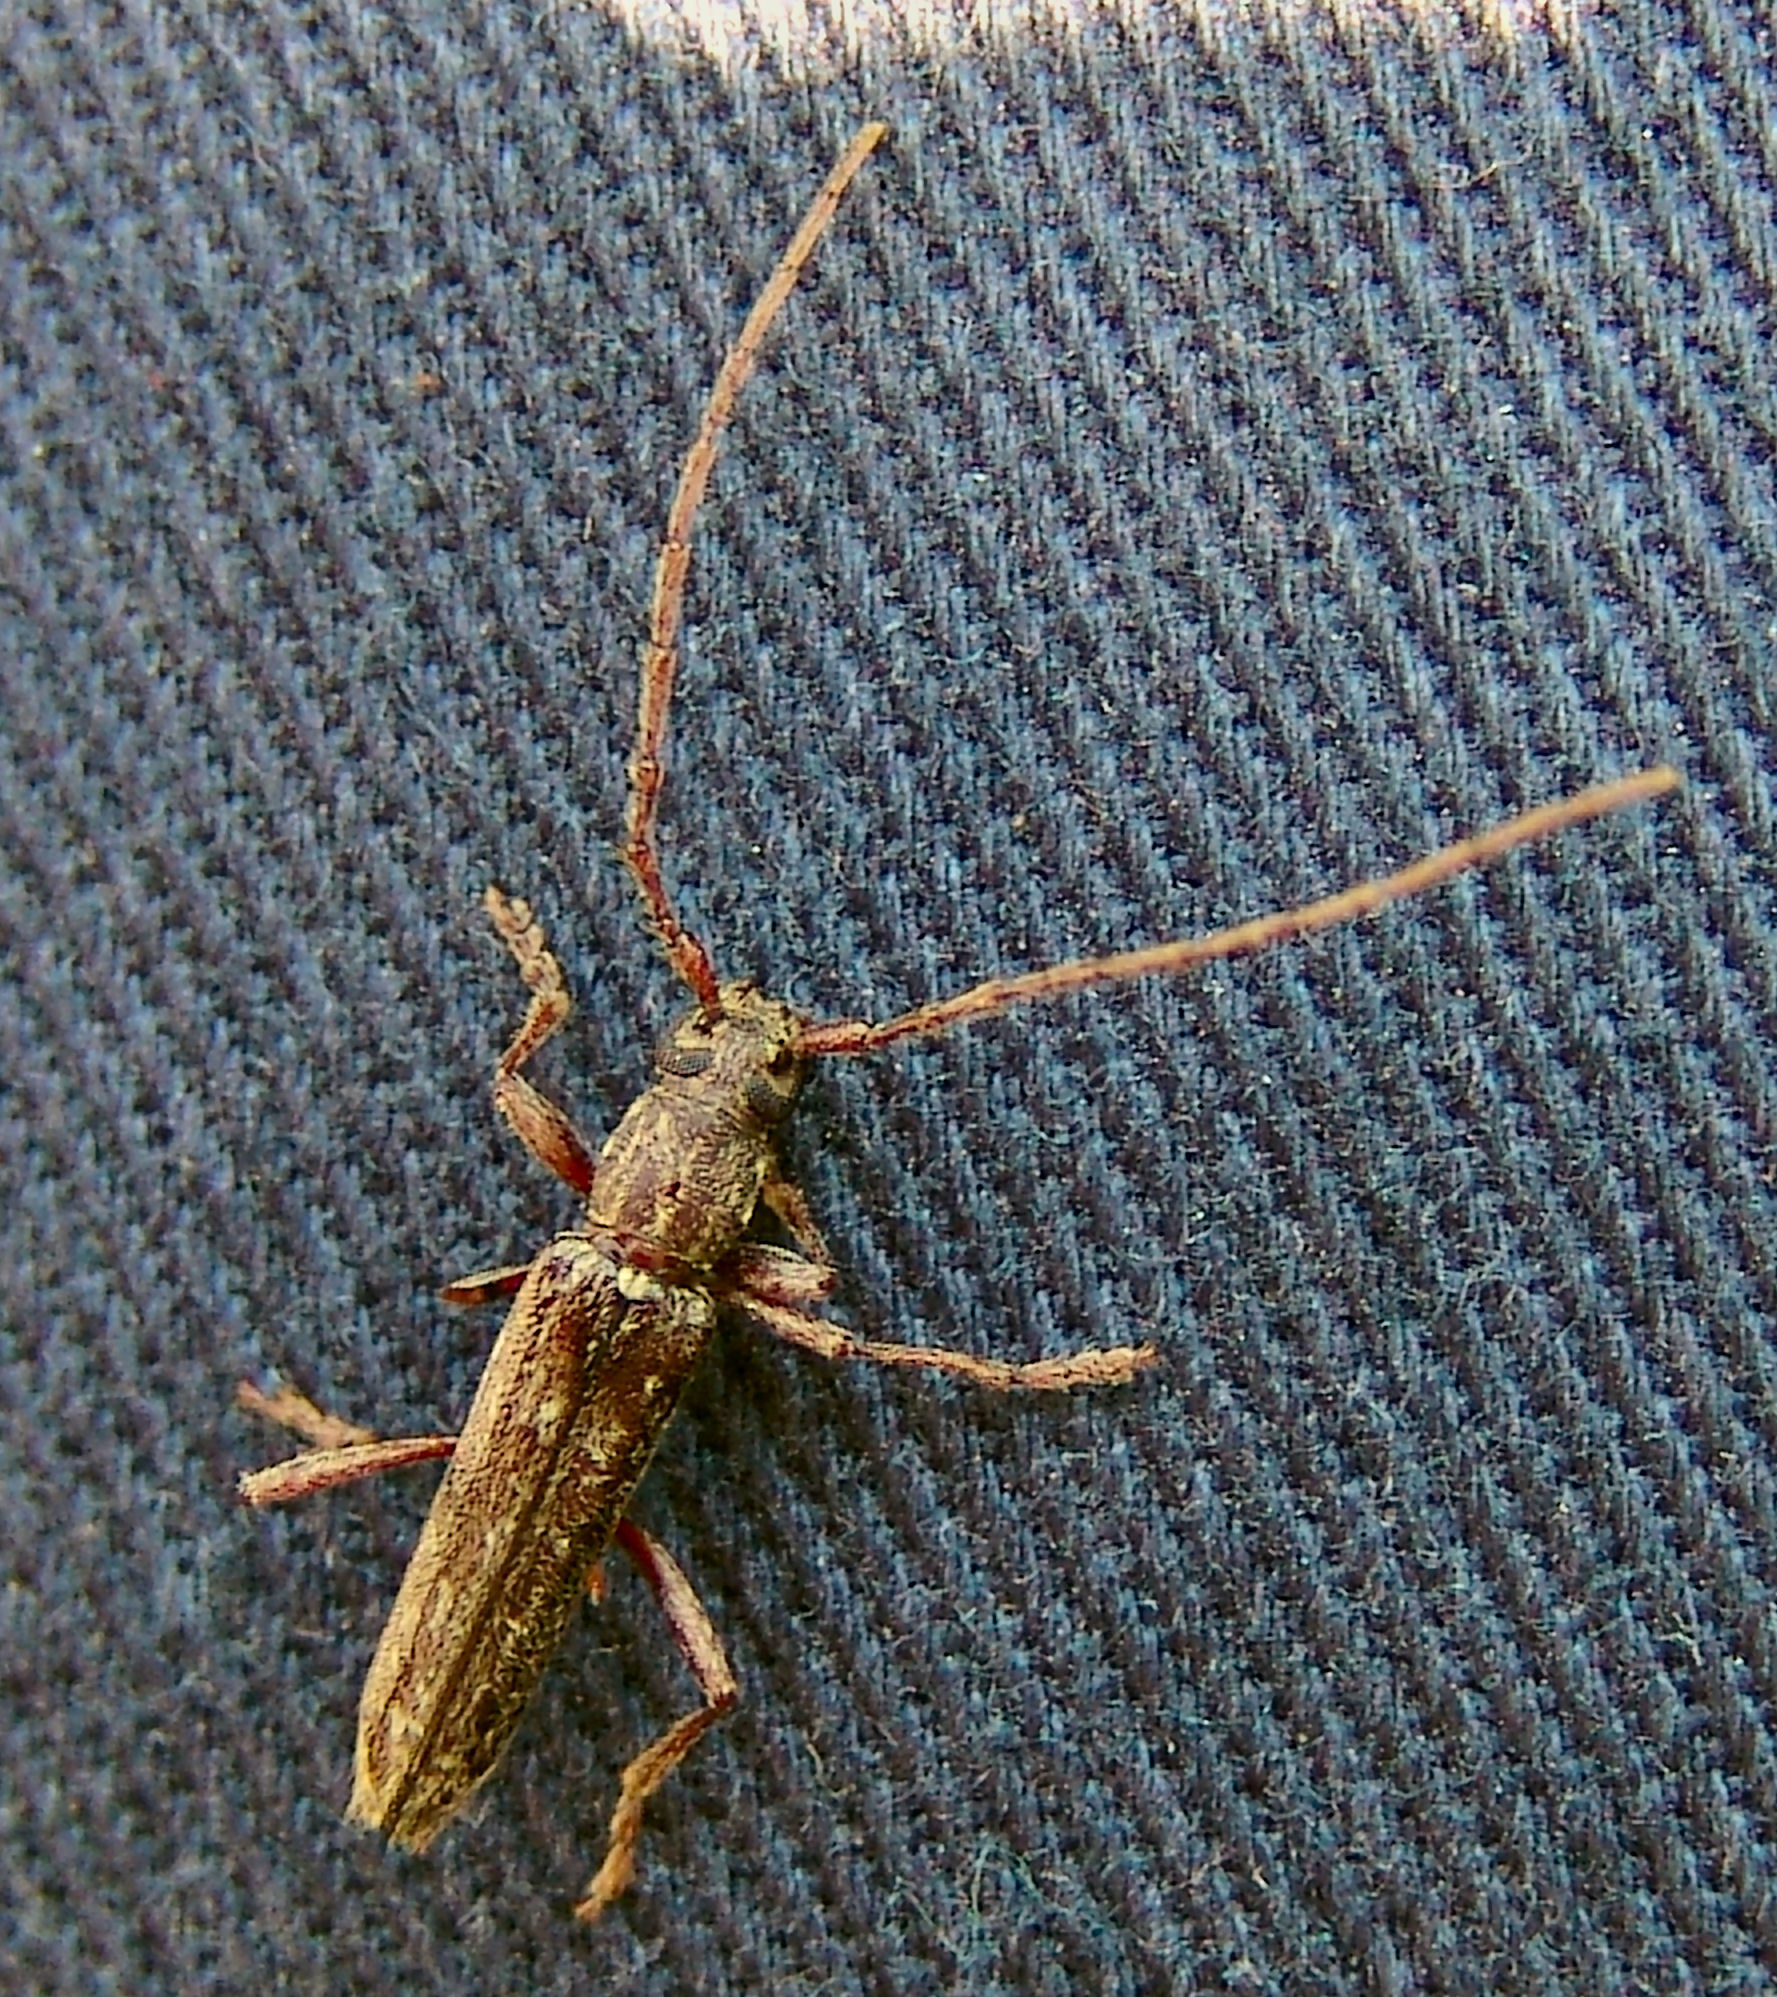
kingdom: Animalia
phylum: Arthropoda
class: Insecta
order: Coleoptera
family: Cerambycidae
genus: Anelaphus
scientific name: Anelaphus villosus
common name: Twig pruner
